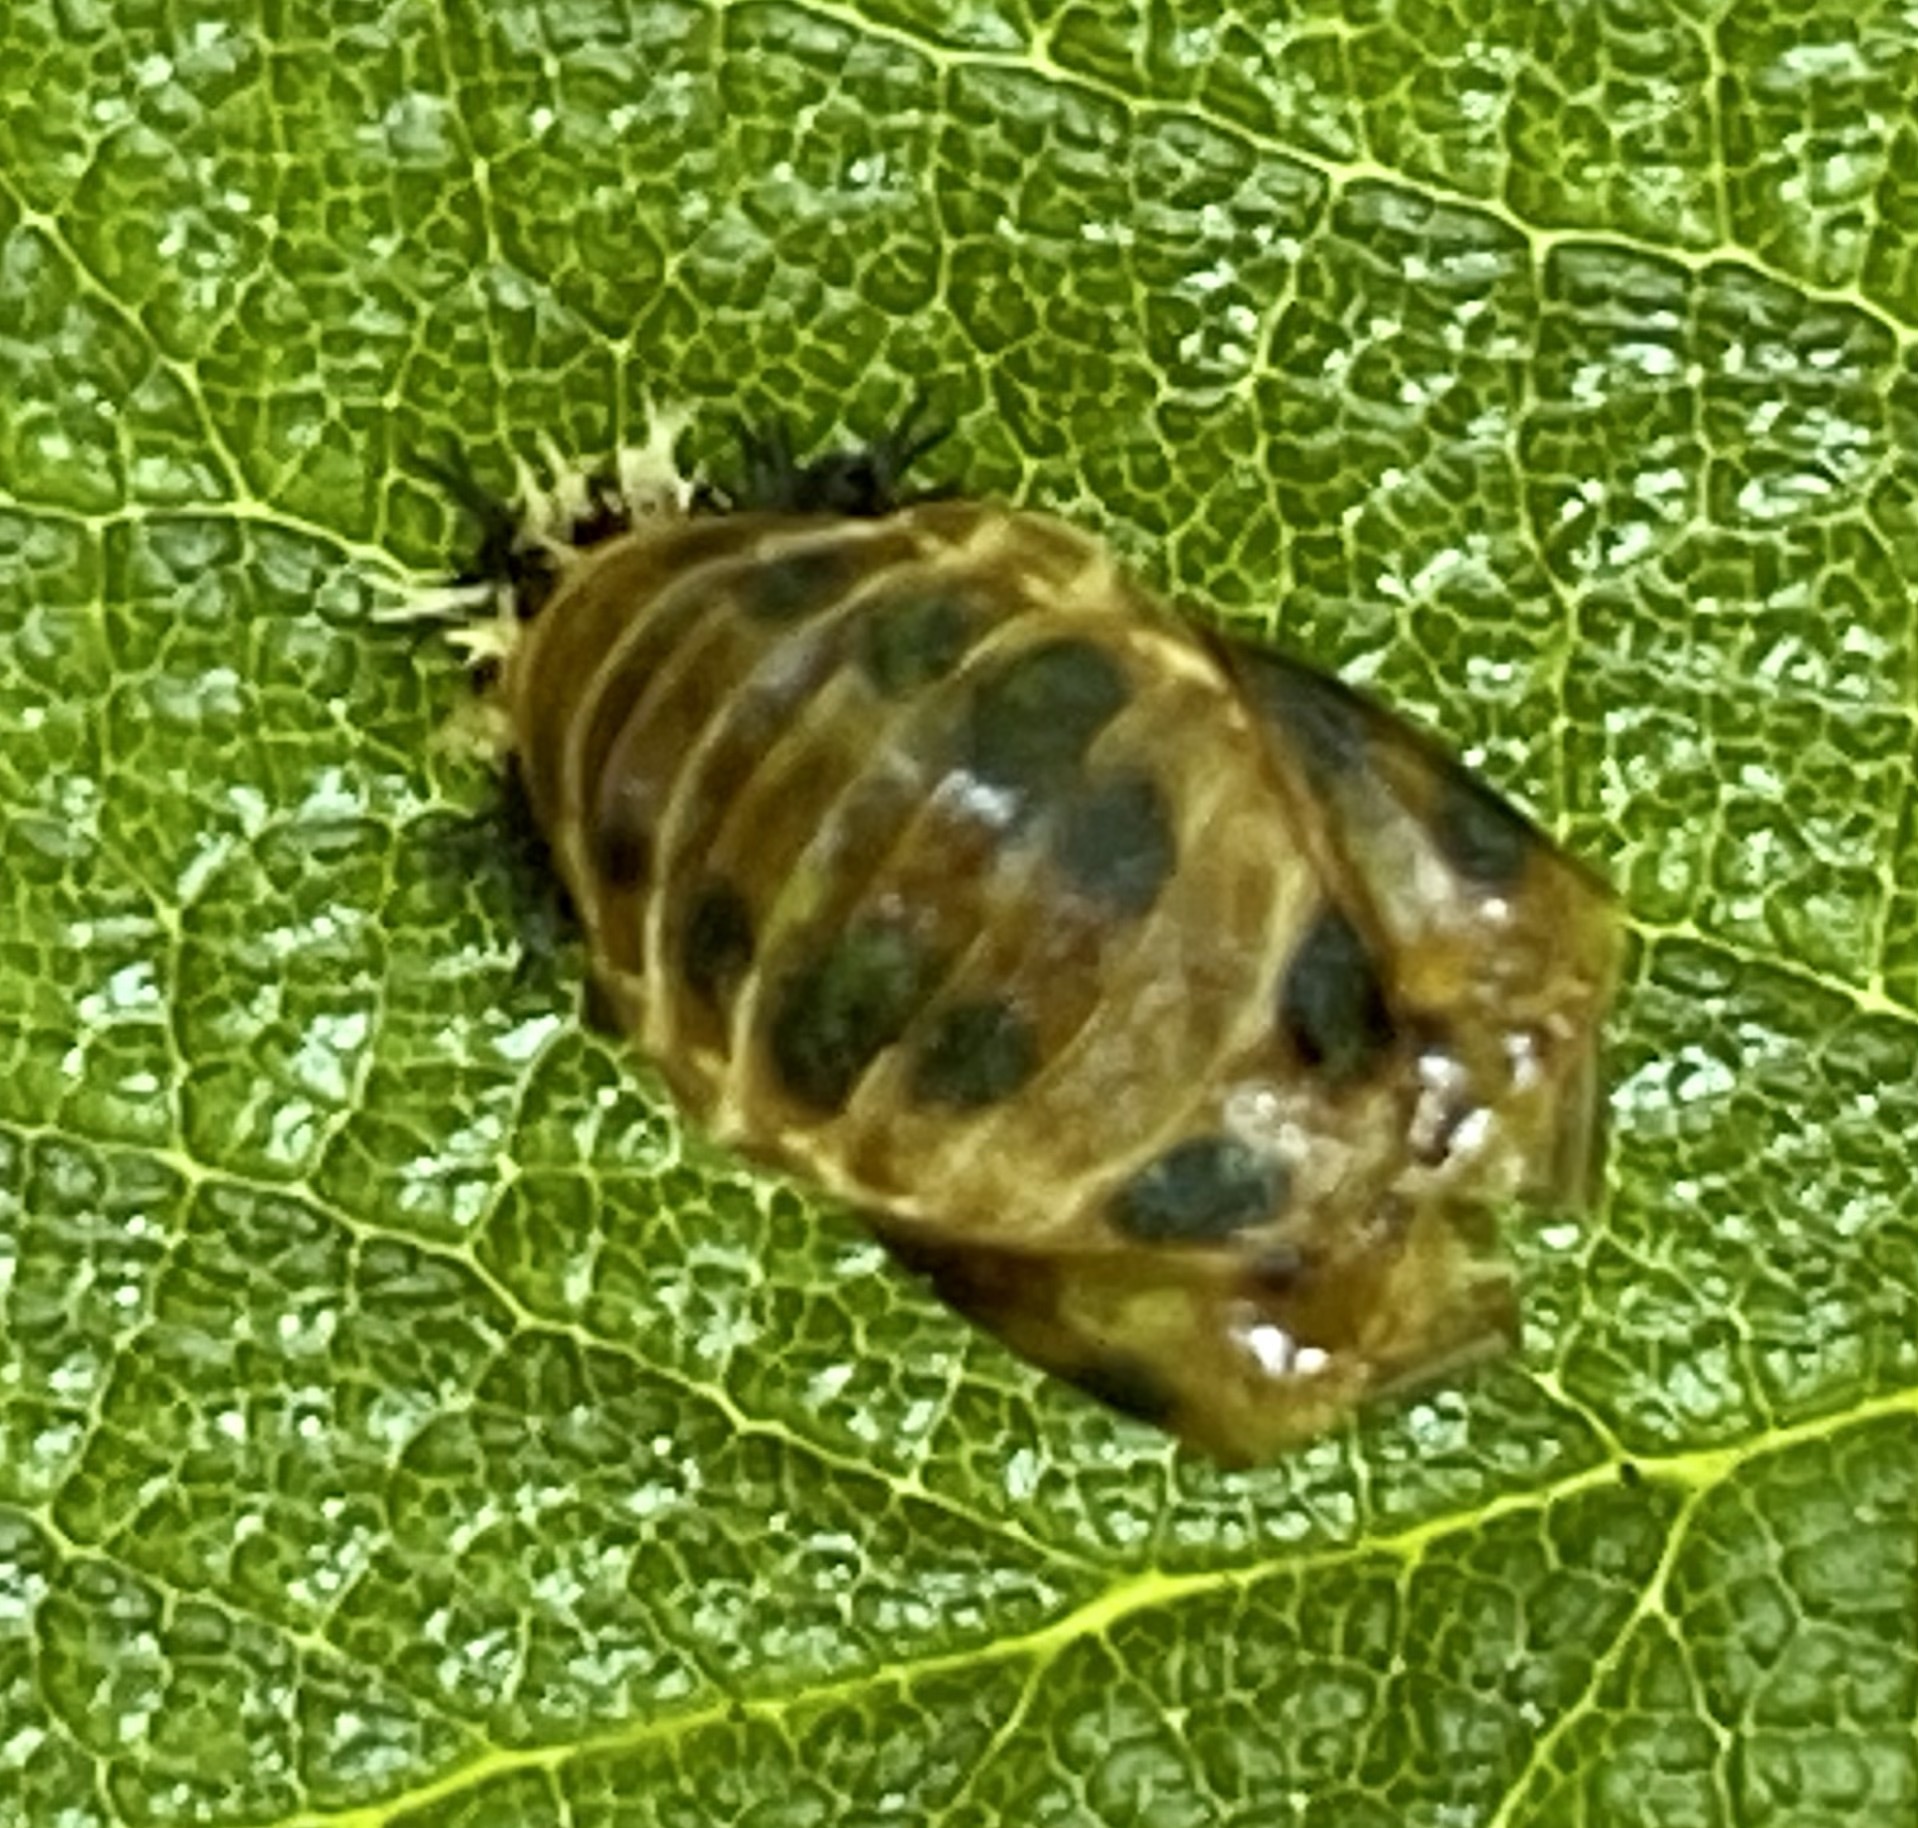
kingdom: Animalia
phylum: Arthropoda
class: Insecta
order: Coleoptera
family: Coccinellidae
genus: Harmonia
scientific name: Harmonia axyridis
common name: Harlequin ladybird
